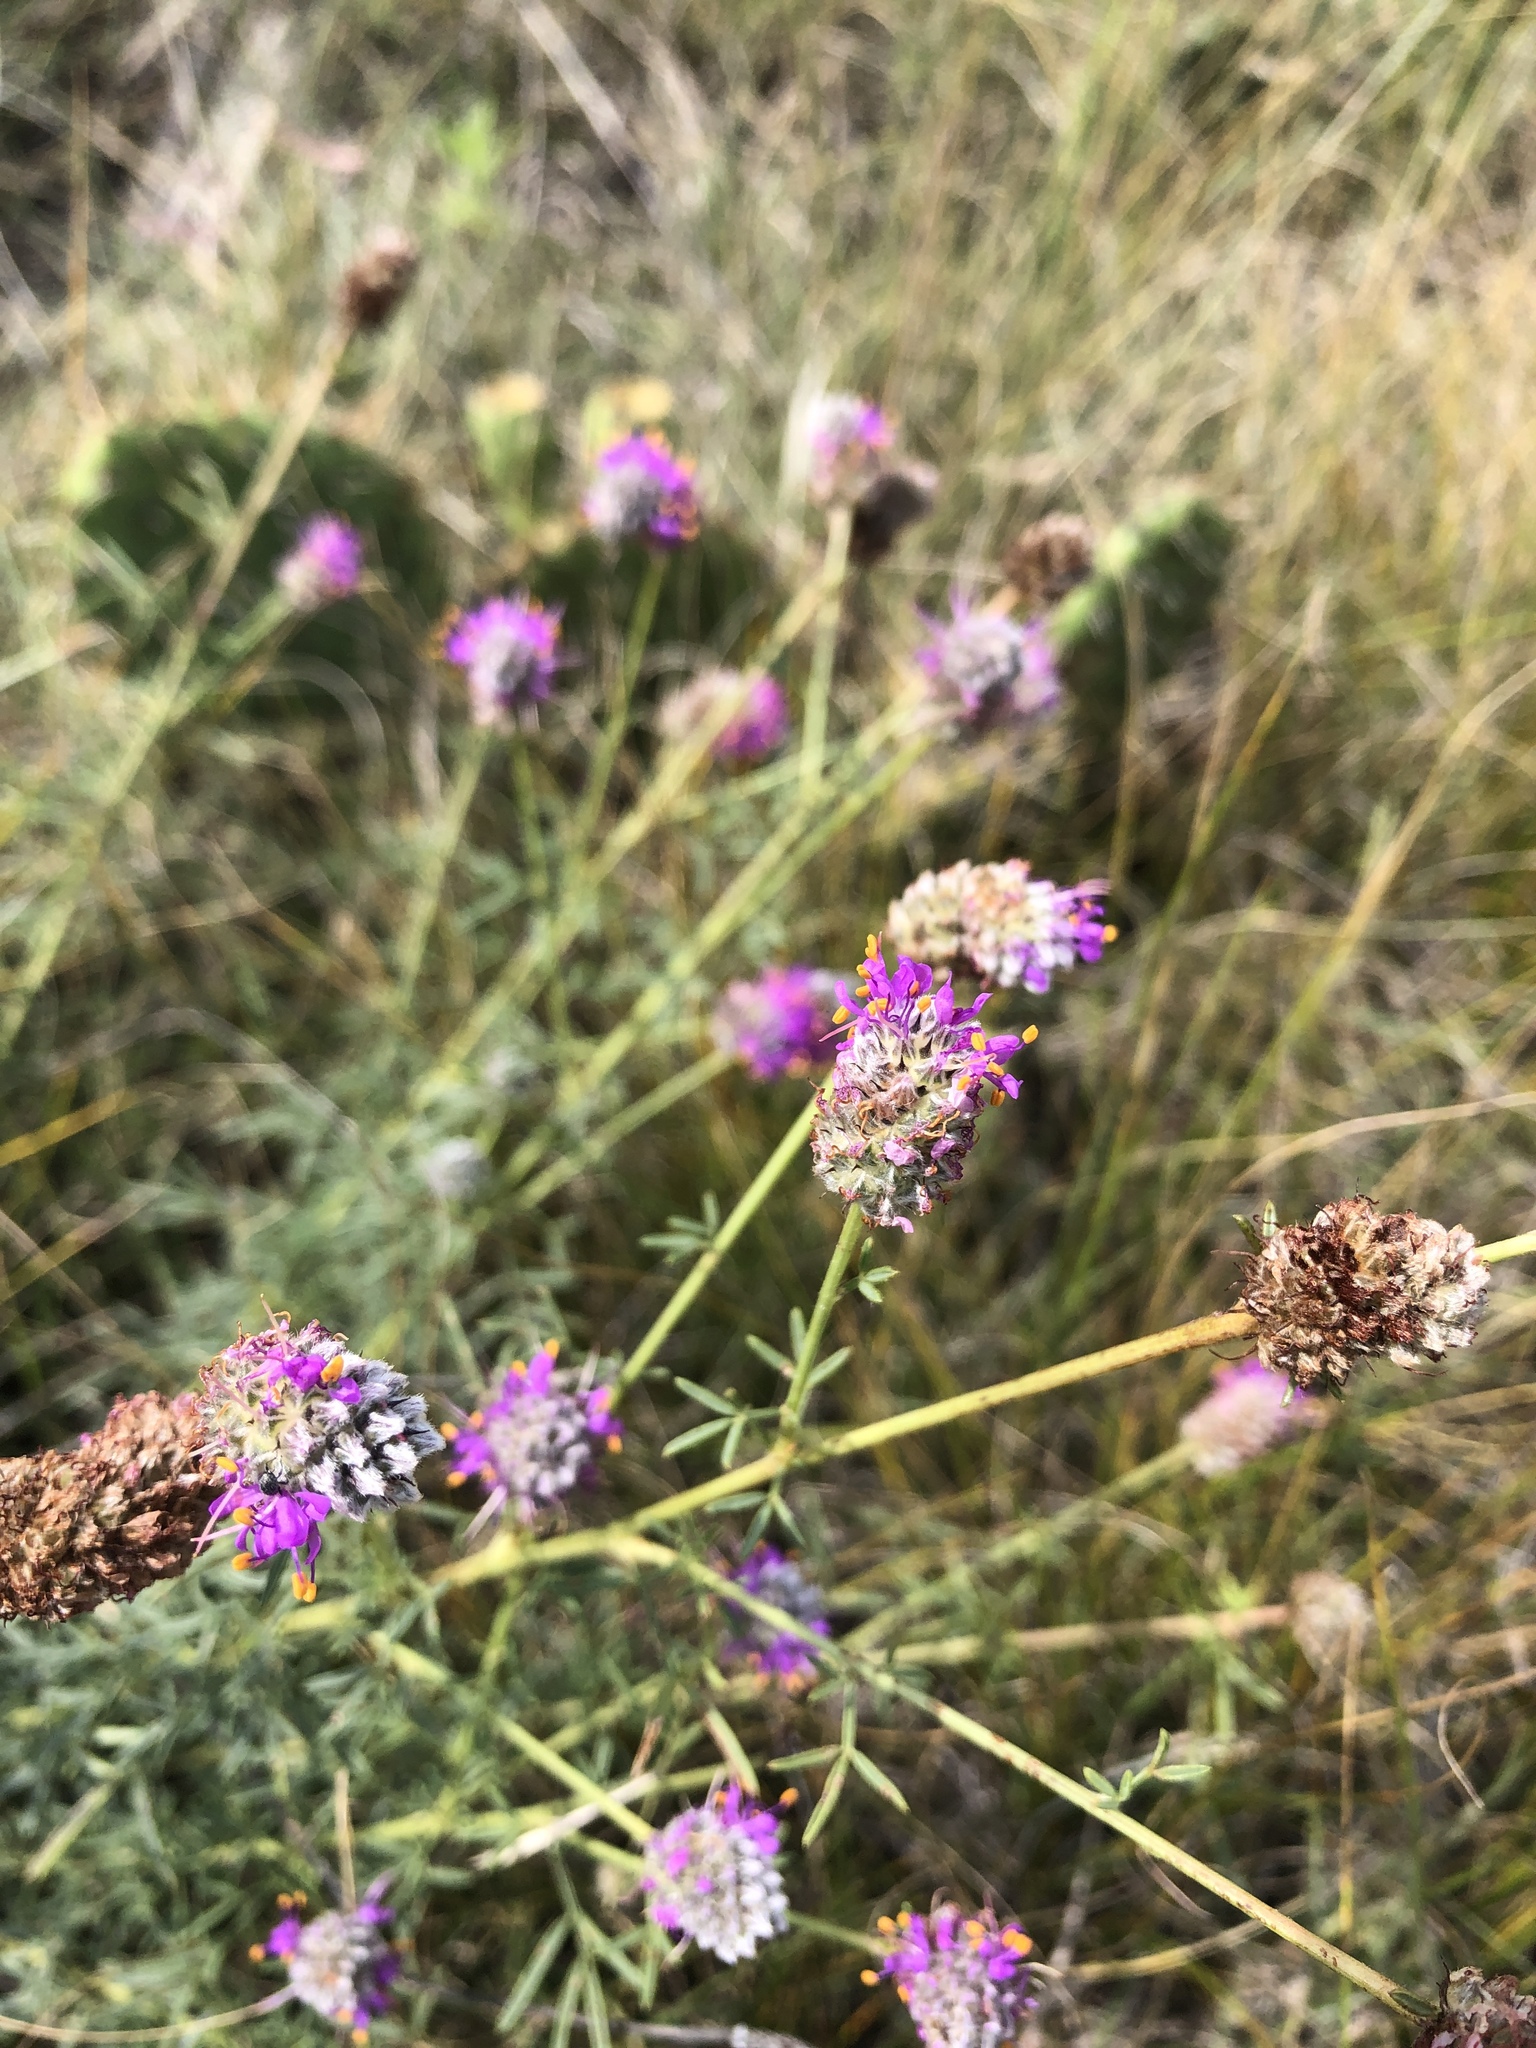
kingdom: Plantae
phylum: Tracheophyta
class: Magnoliopsida
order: Fabales
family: Fabaceae
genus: Dalea
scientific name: Dalea purpurea
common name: Purple prairie-clover
